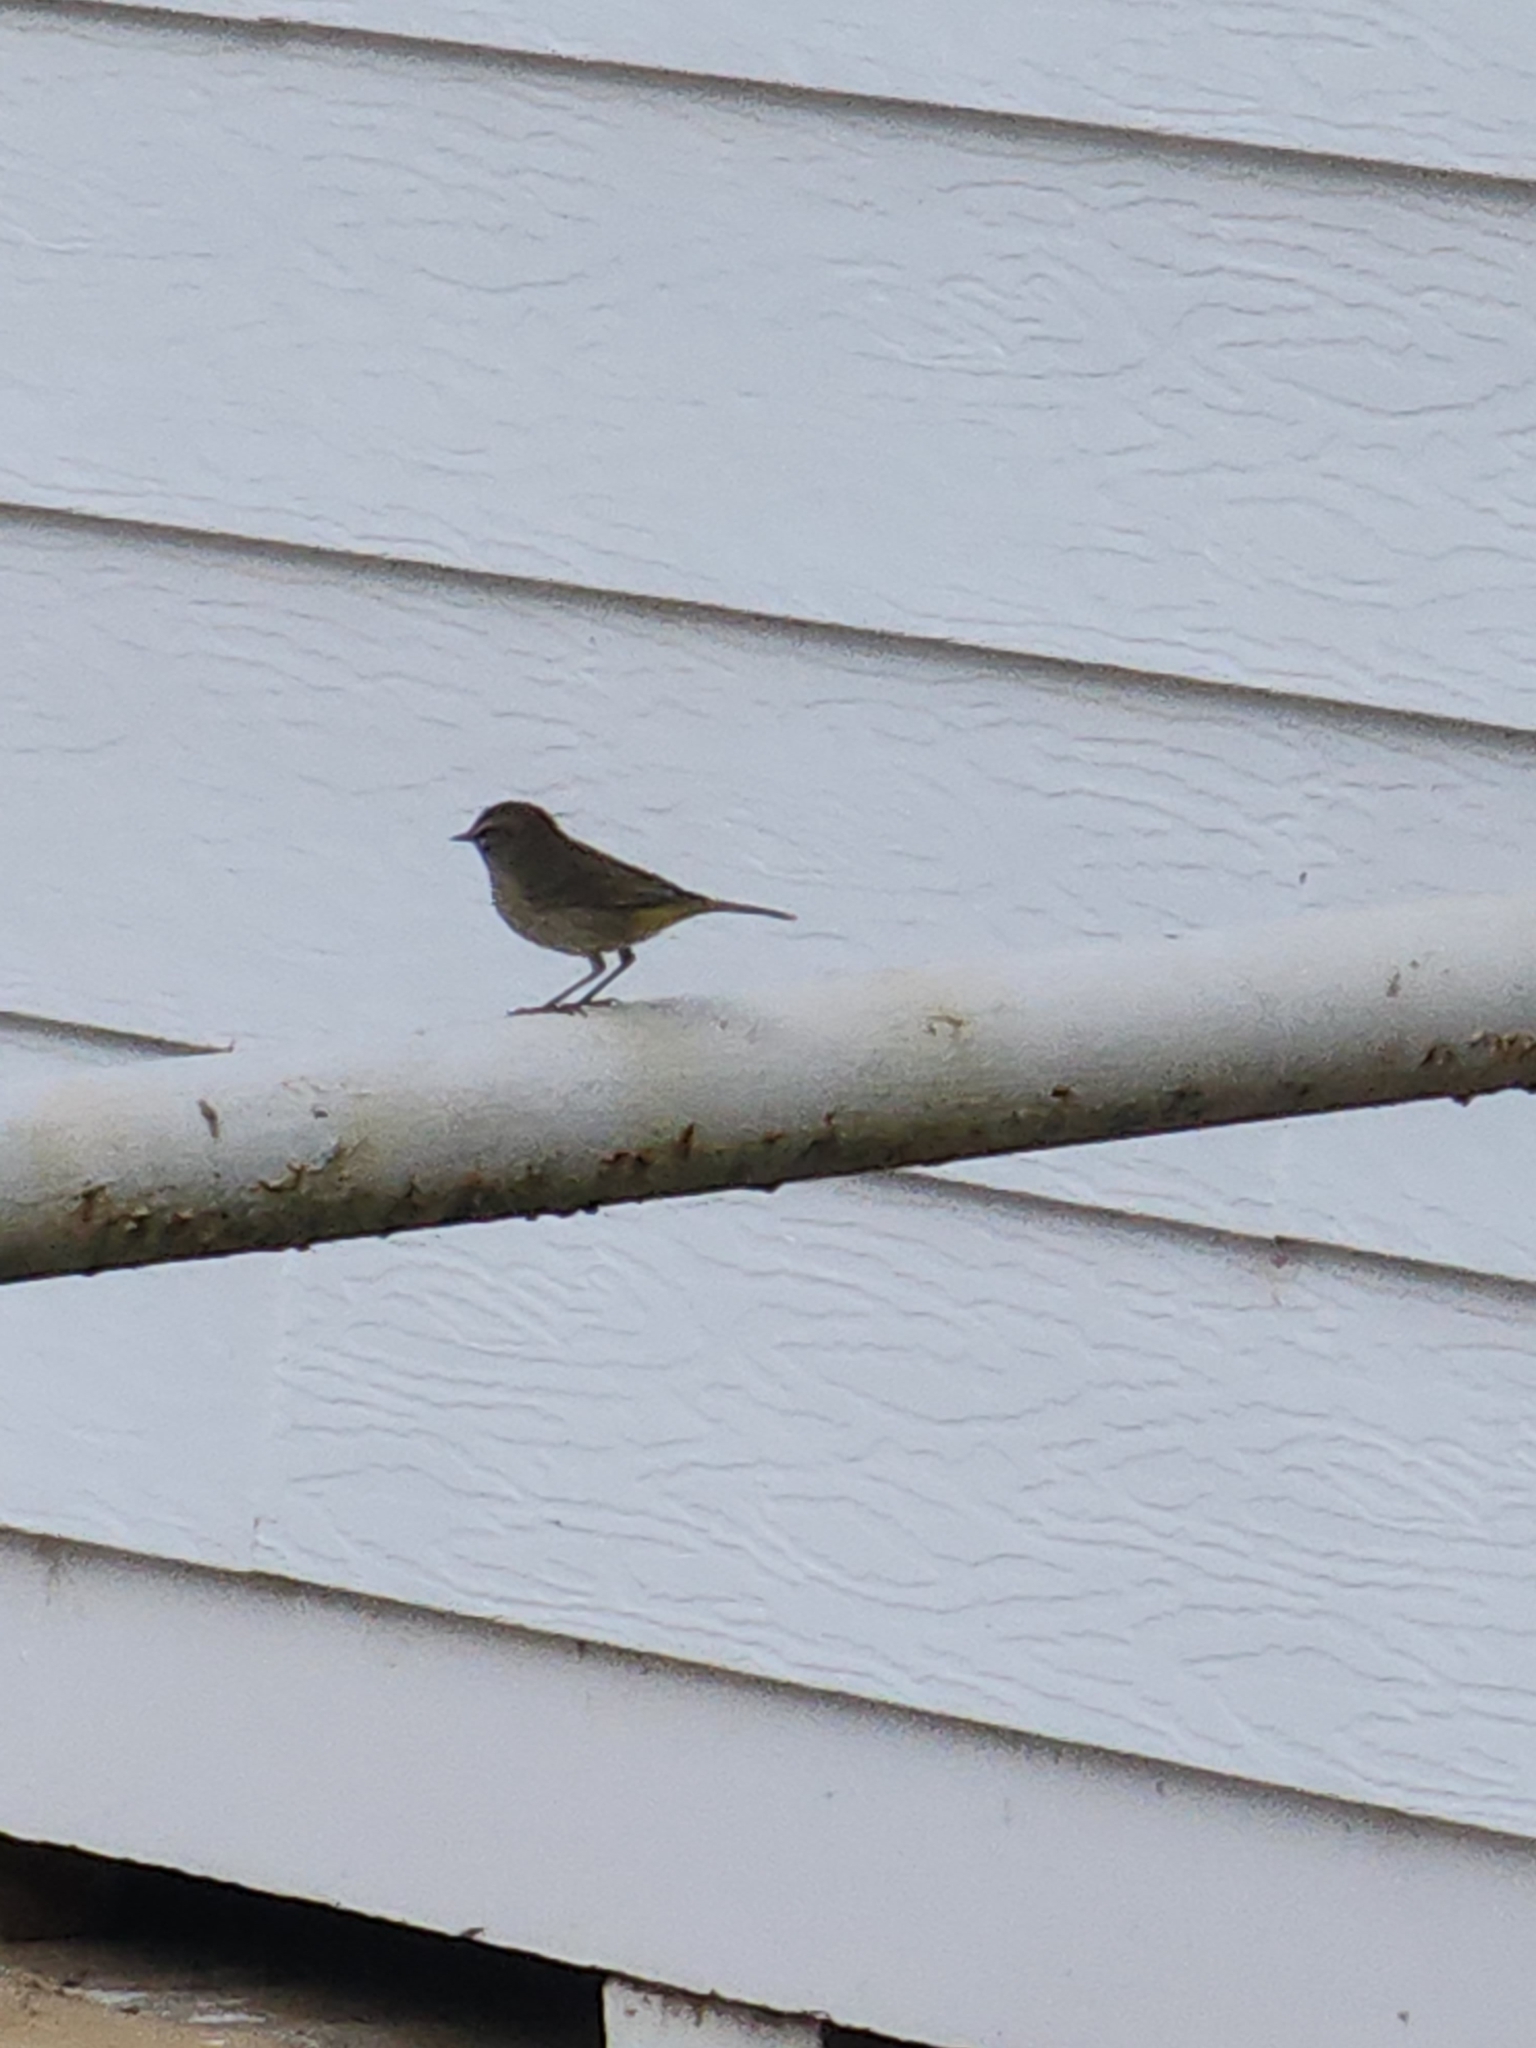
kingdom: Animalia
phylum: Chordata
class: Aves
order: Passeriformes
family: Parulidae
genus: Setophaga
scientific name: Setophaga palmarum
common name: Palm warbler
